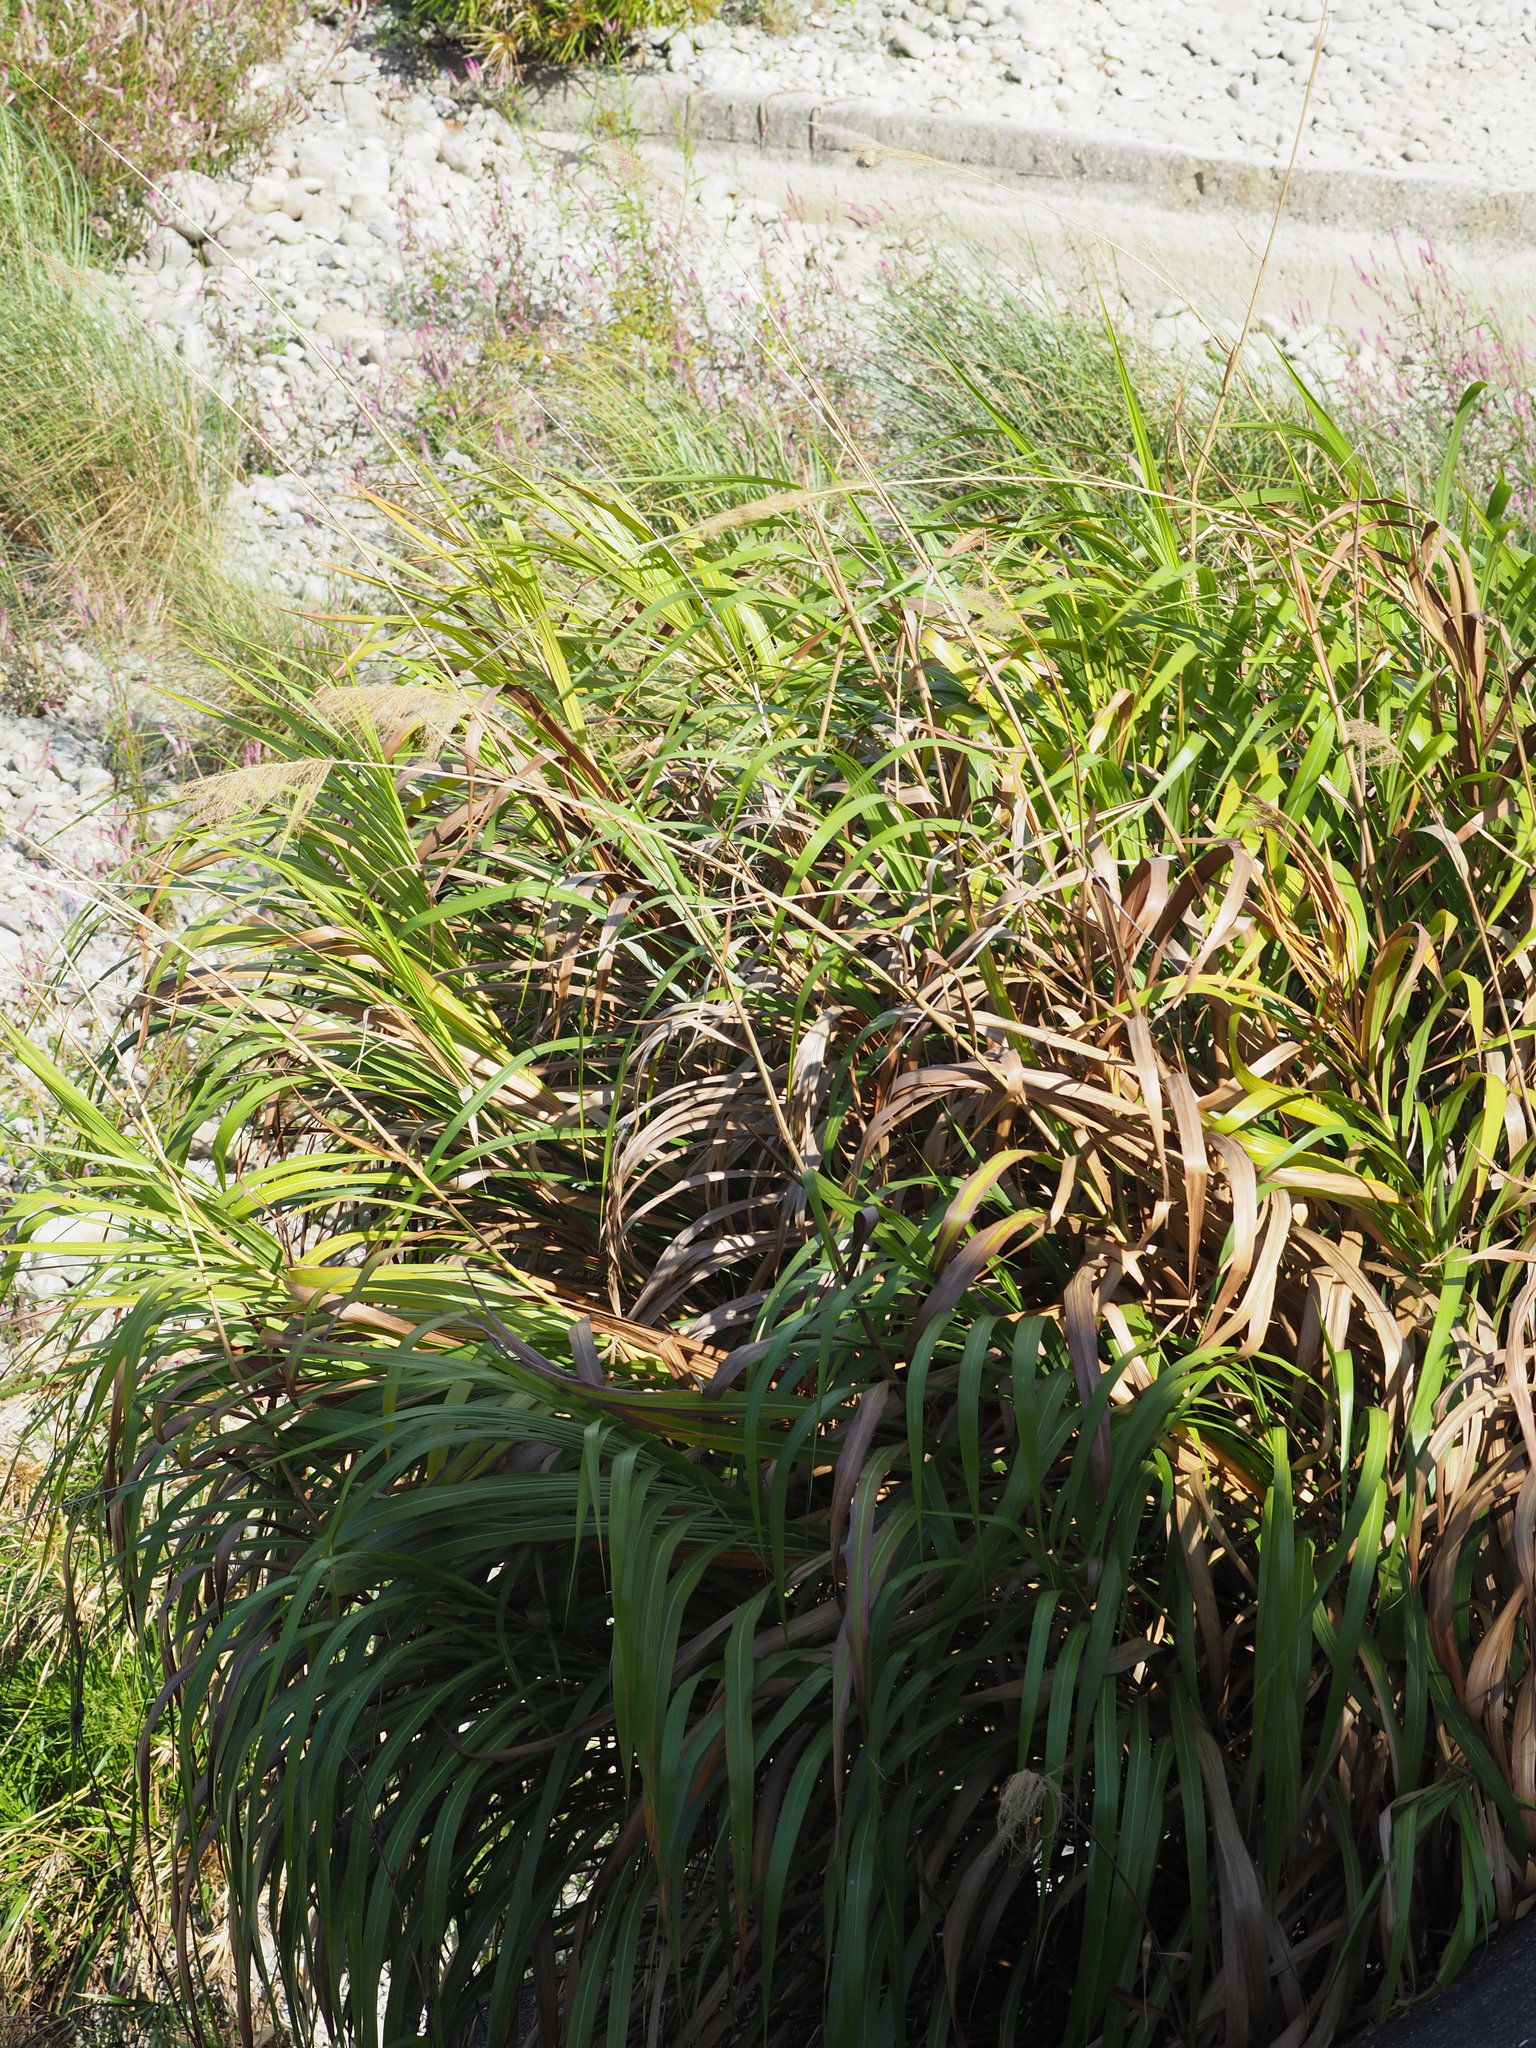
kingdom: Plantae
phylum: Tracheophyta
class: Liliopsida
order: Poales
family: Poaceae
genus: Miscanthus
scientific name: Miscanthus sinensis
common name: Chinese silvergrass
